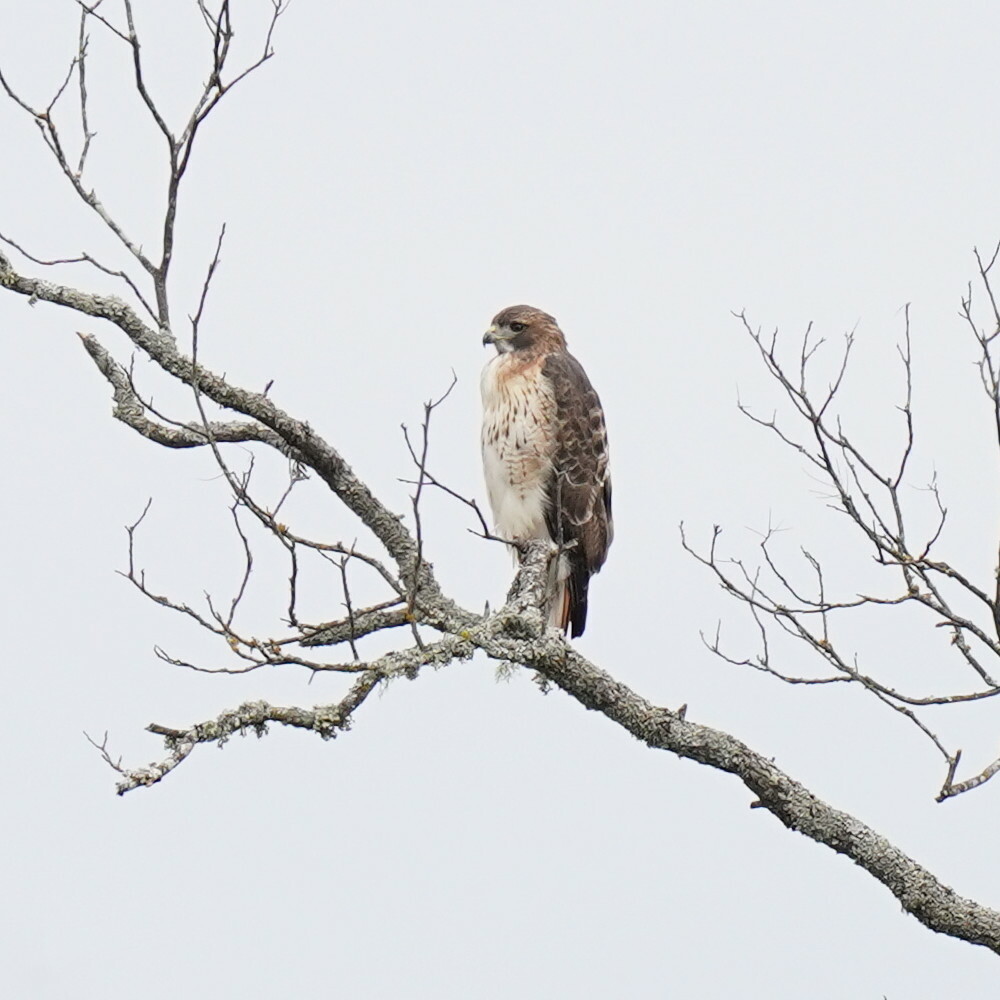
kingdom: Animalia
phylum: Chordata
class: Aves
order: Accipitriformes
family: Accipitridae
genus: Buteo
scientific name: Buteo jamaicensis
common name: Red-tailed hawk
